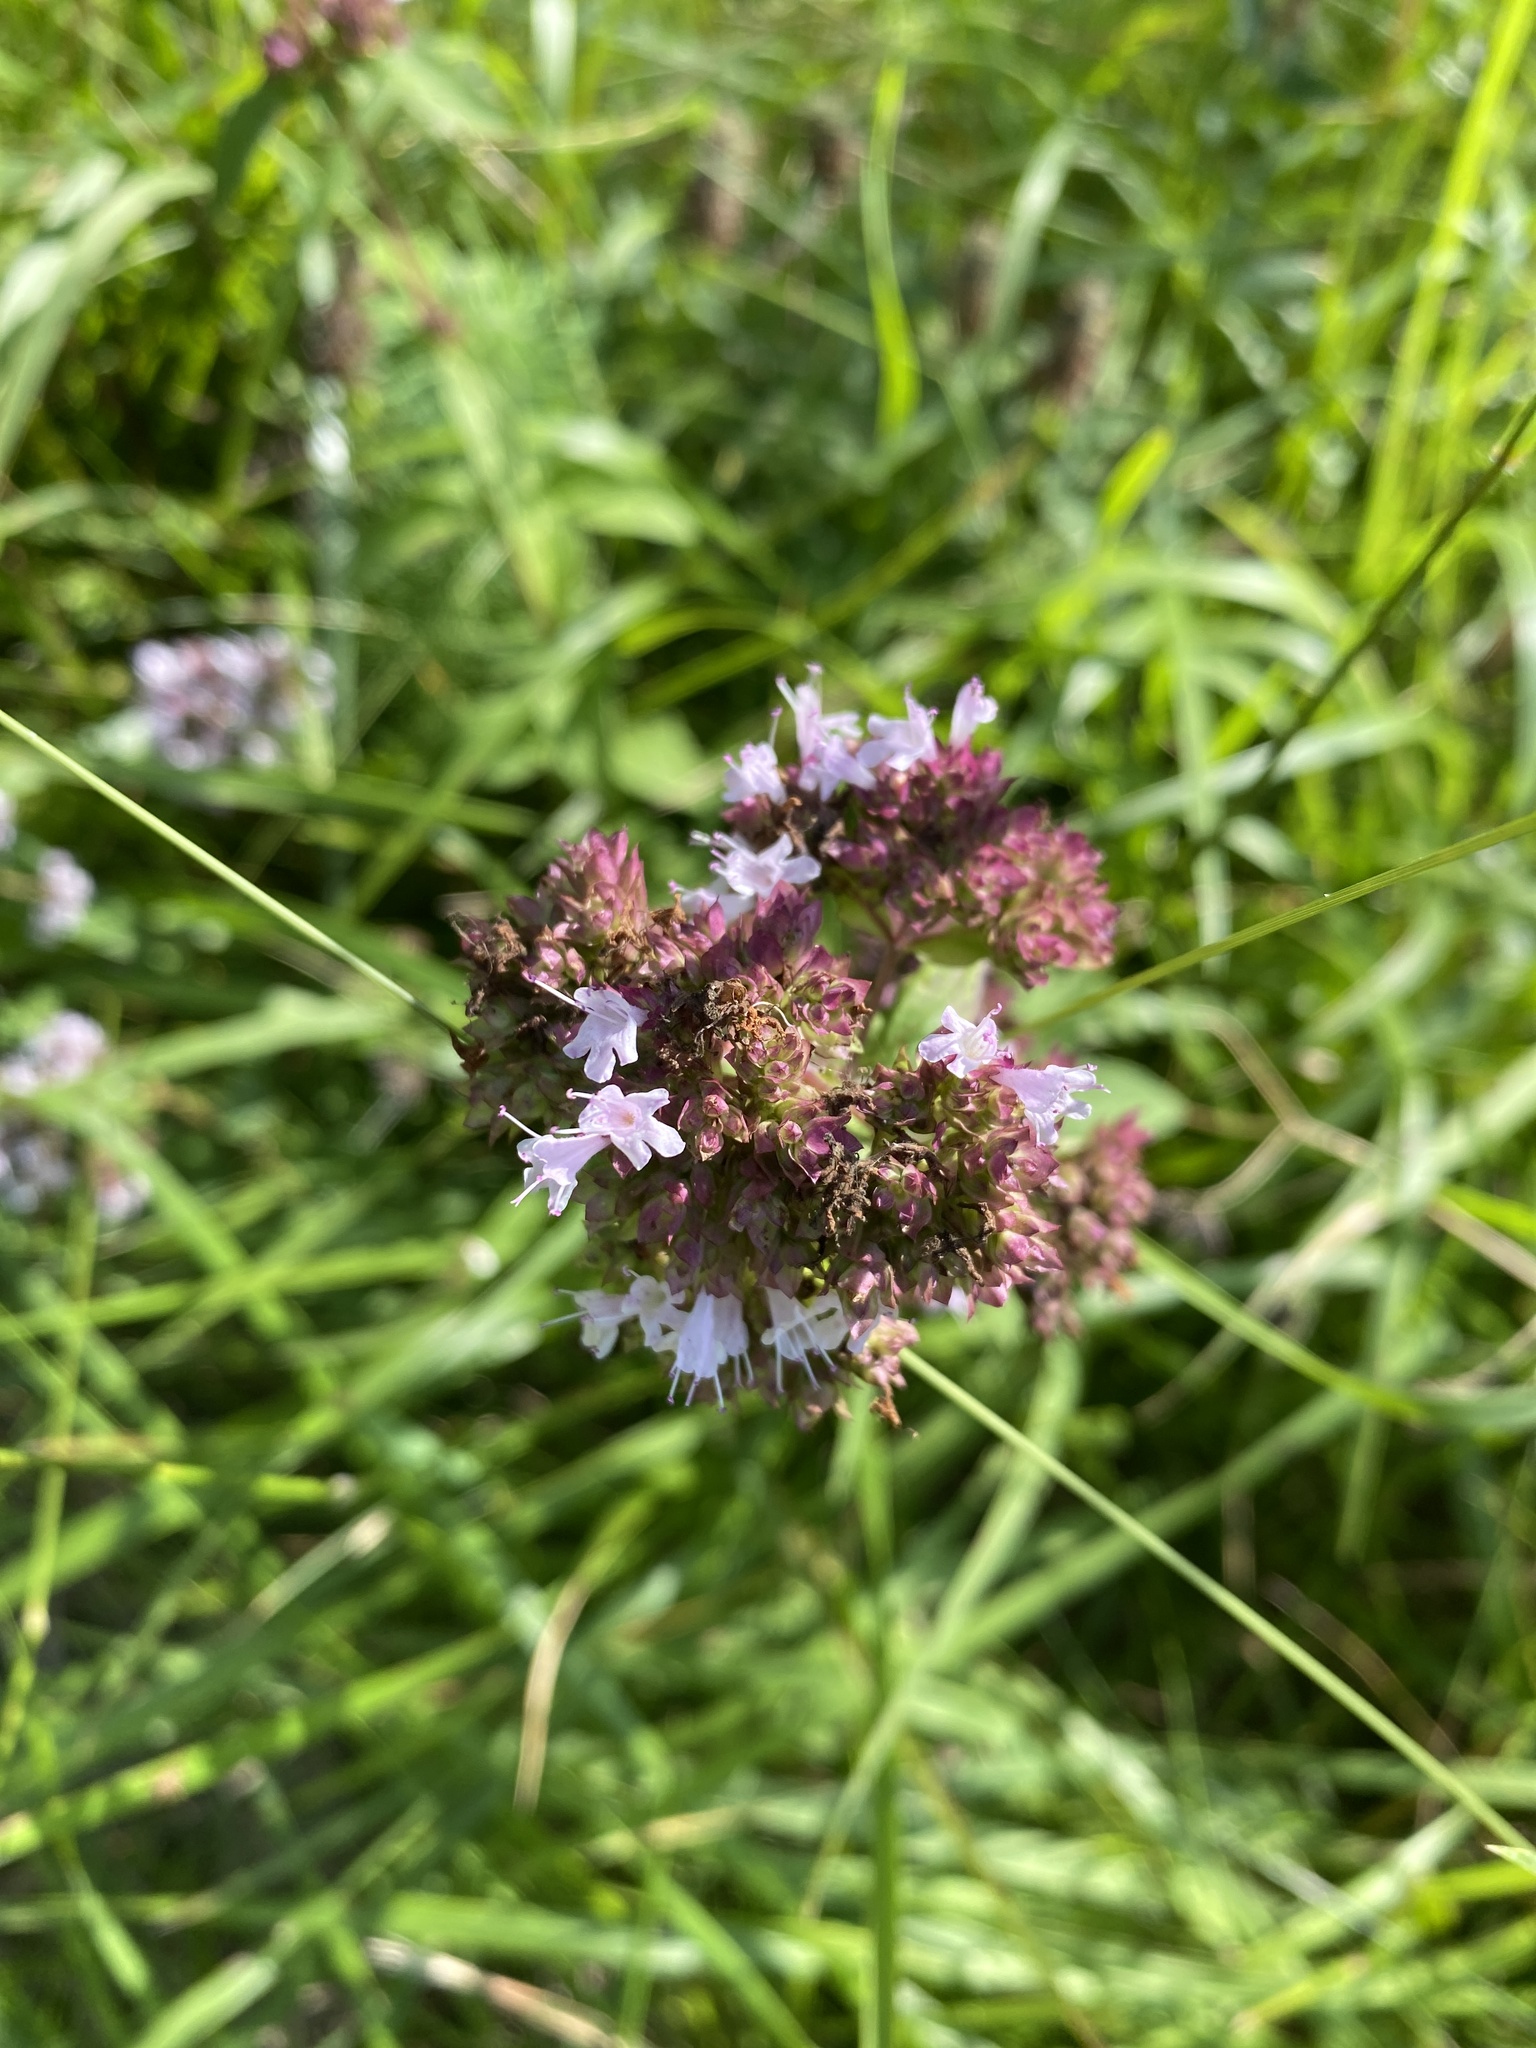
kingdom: Plantae
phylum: Tracheophyta
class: Magnoliopsida
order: Lamiales
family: Lamiaceae
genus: Origanum
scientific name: Origanum vulgare
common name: Wild marjoram
